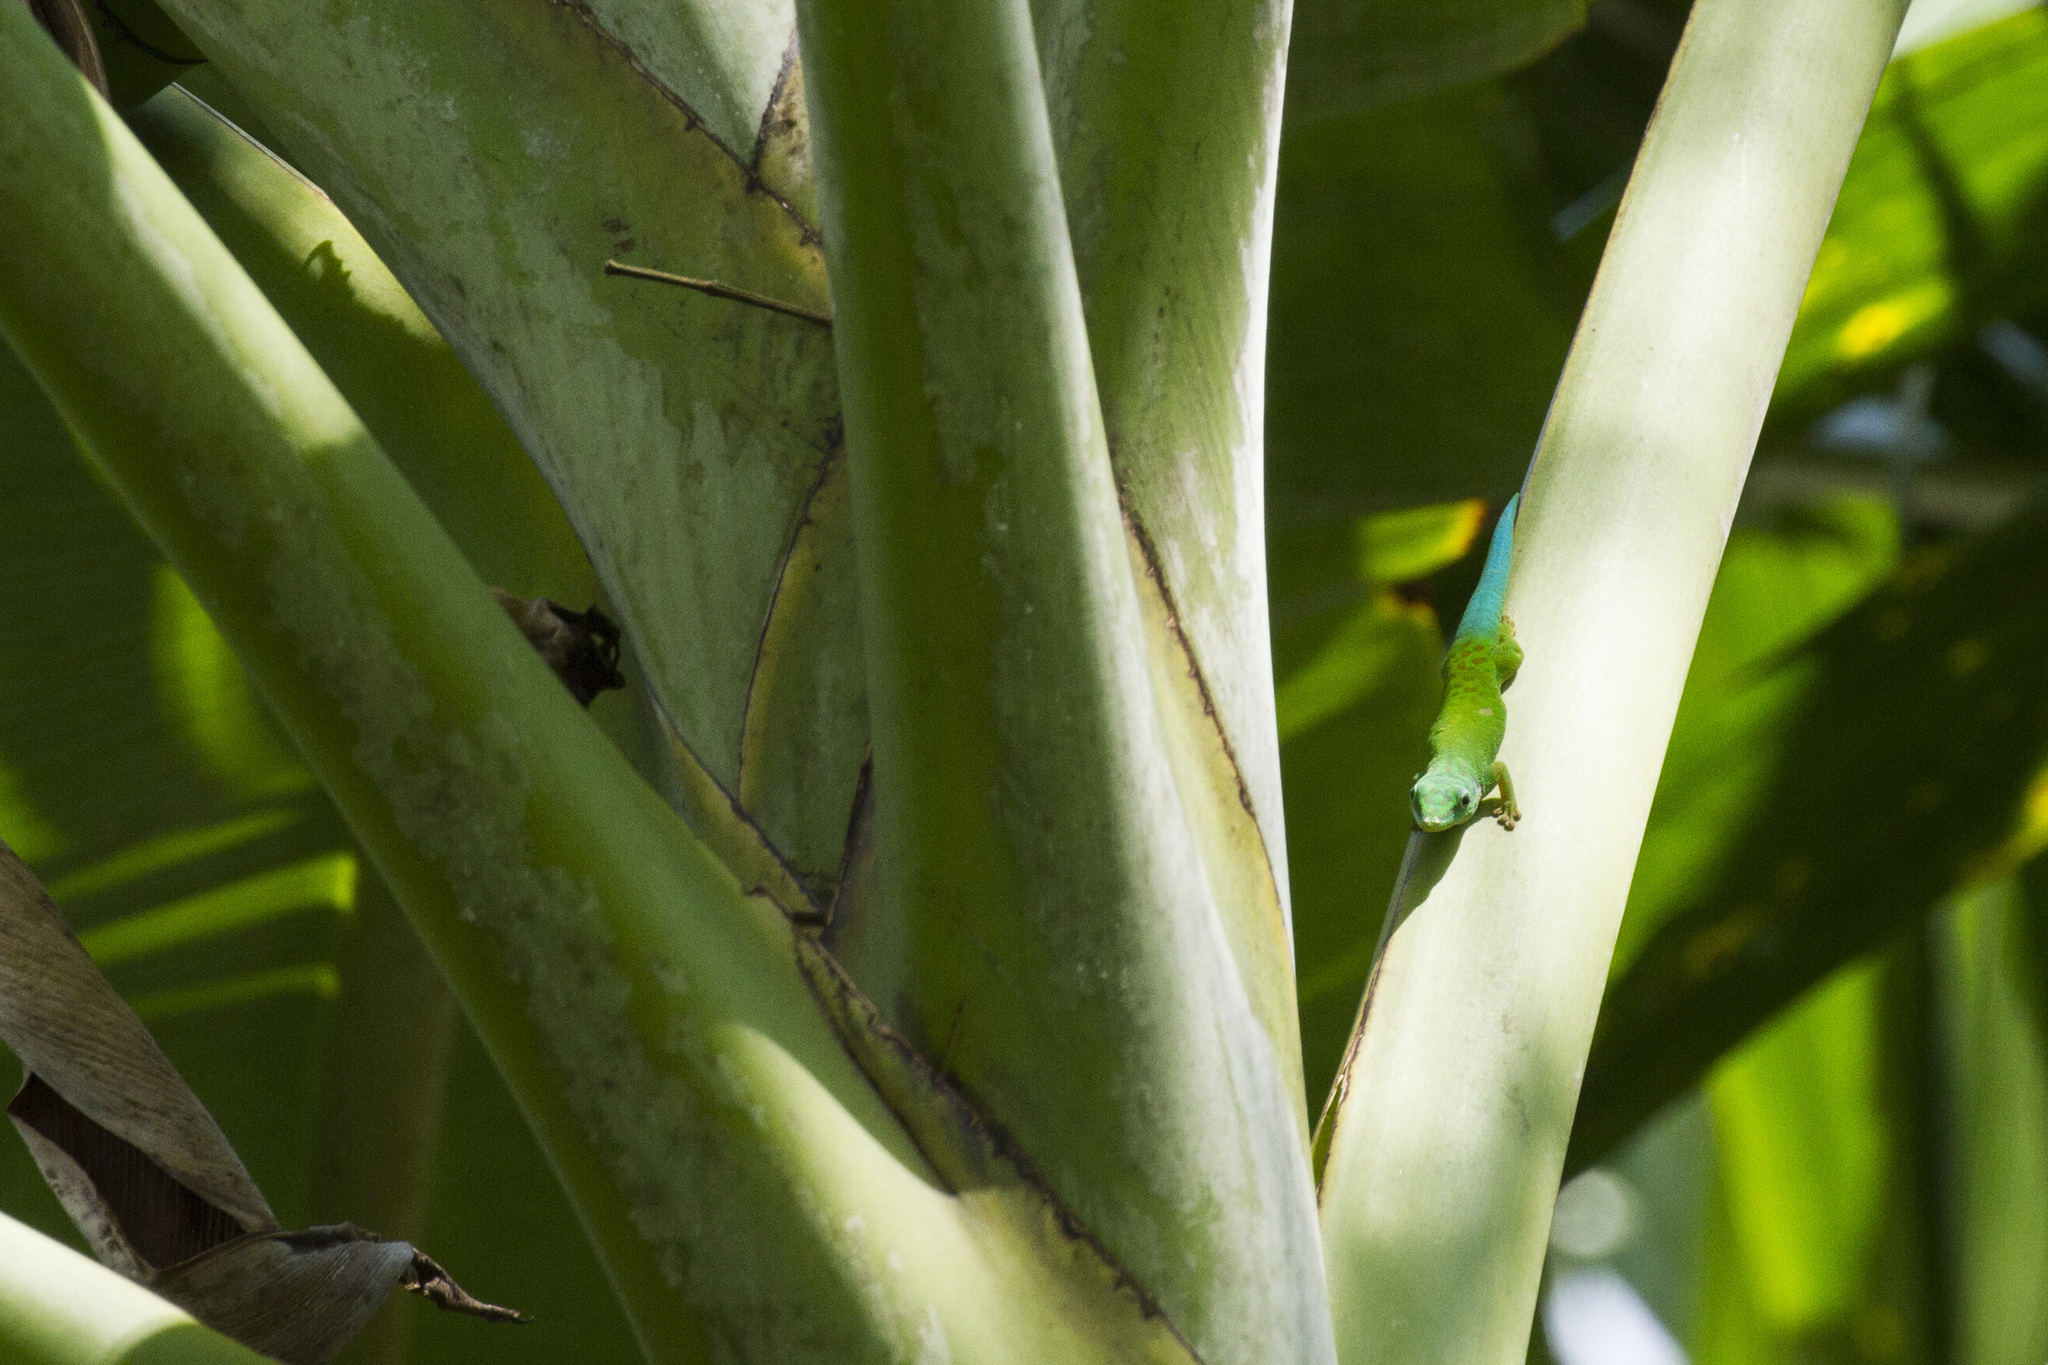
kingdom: Animalia
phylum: Chordata
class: Squamata
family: Gekkonidae
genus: Phelsuma
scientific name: Phelsuma andamanensis
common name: Andaman day gecko
